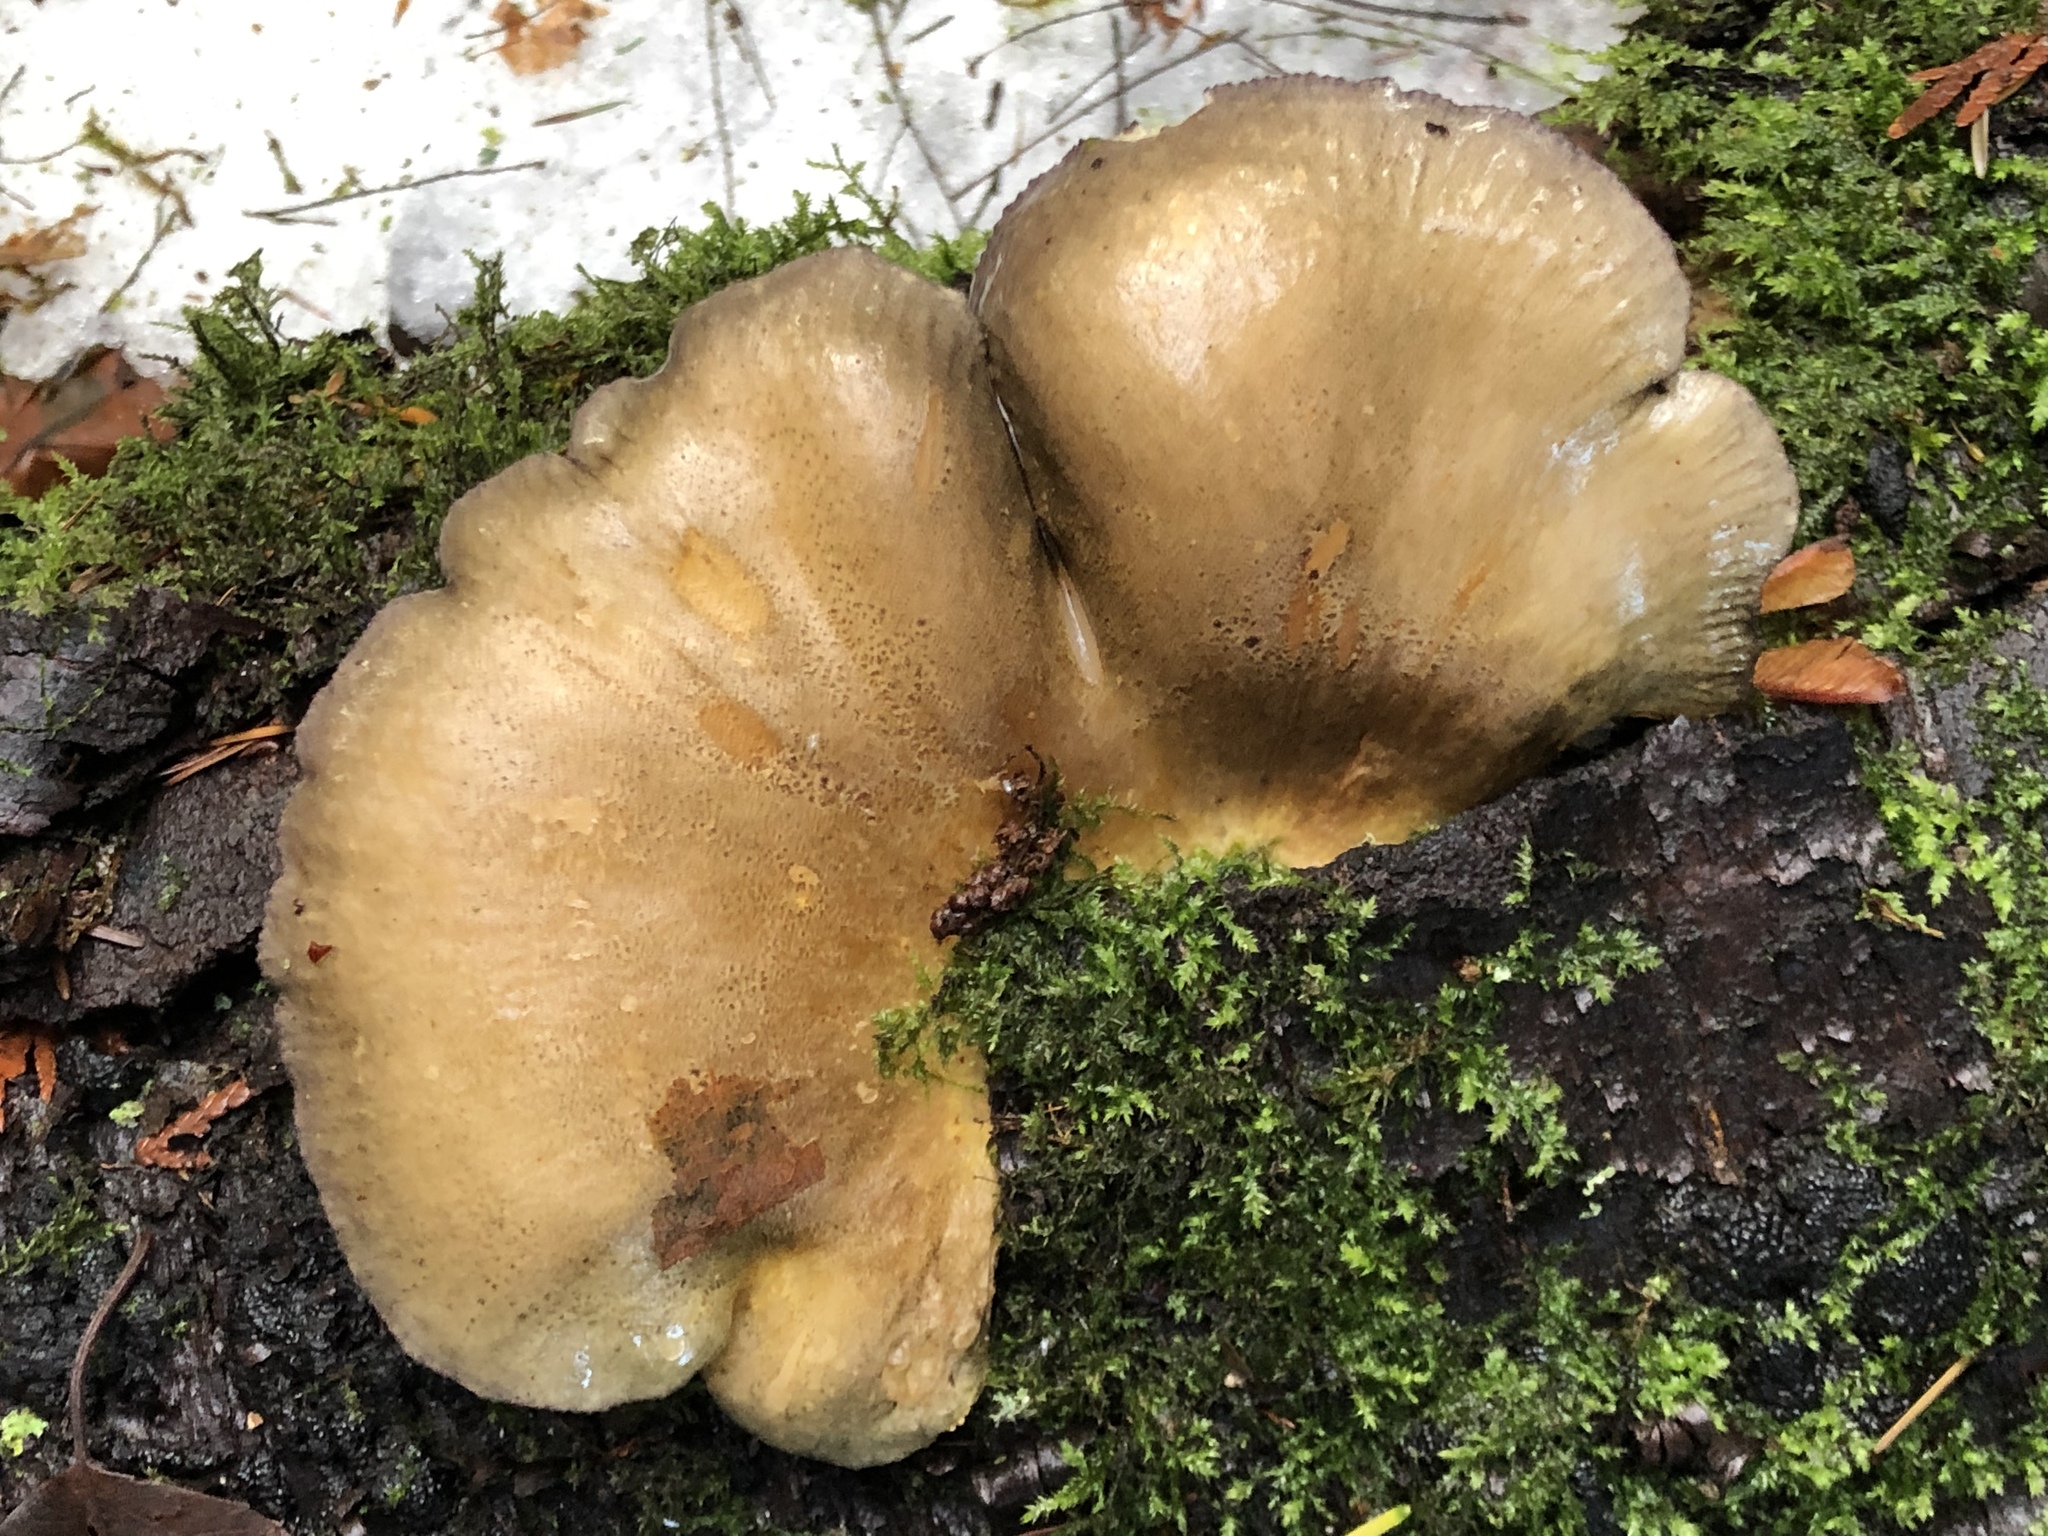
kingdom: Fungi
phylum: Basidiomycota
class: Agaricomycetes
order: Agaricales
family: Sarcomyxaceae
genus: Sarcomyxa
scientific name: Sarcomyxa serotina
